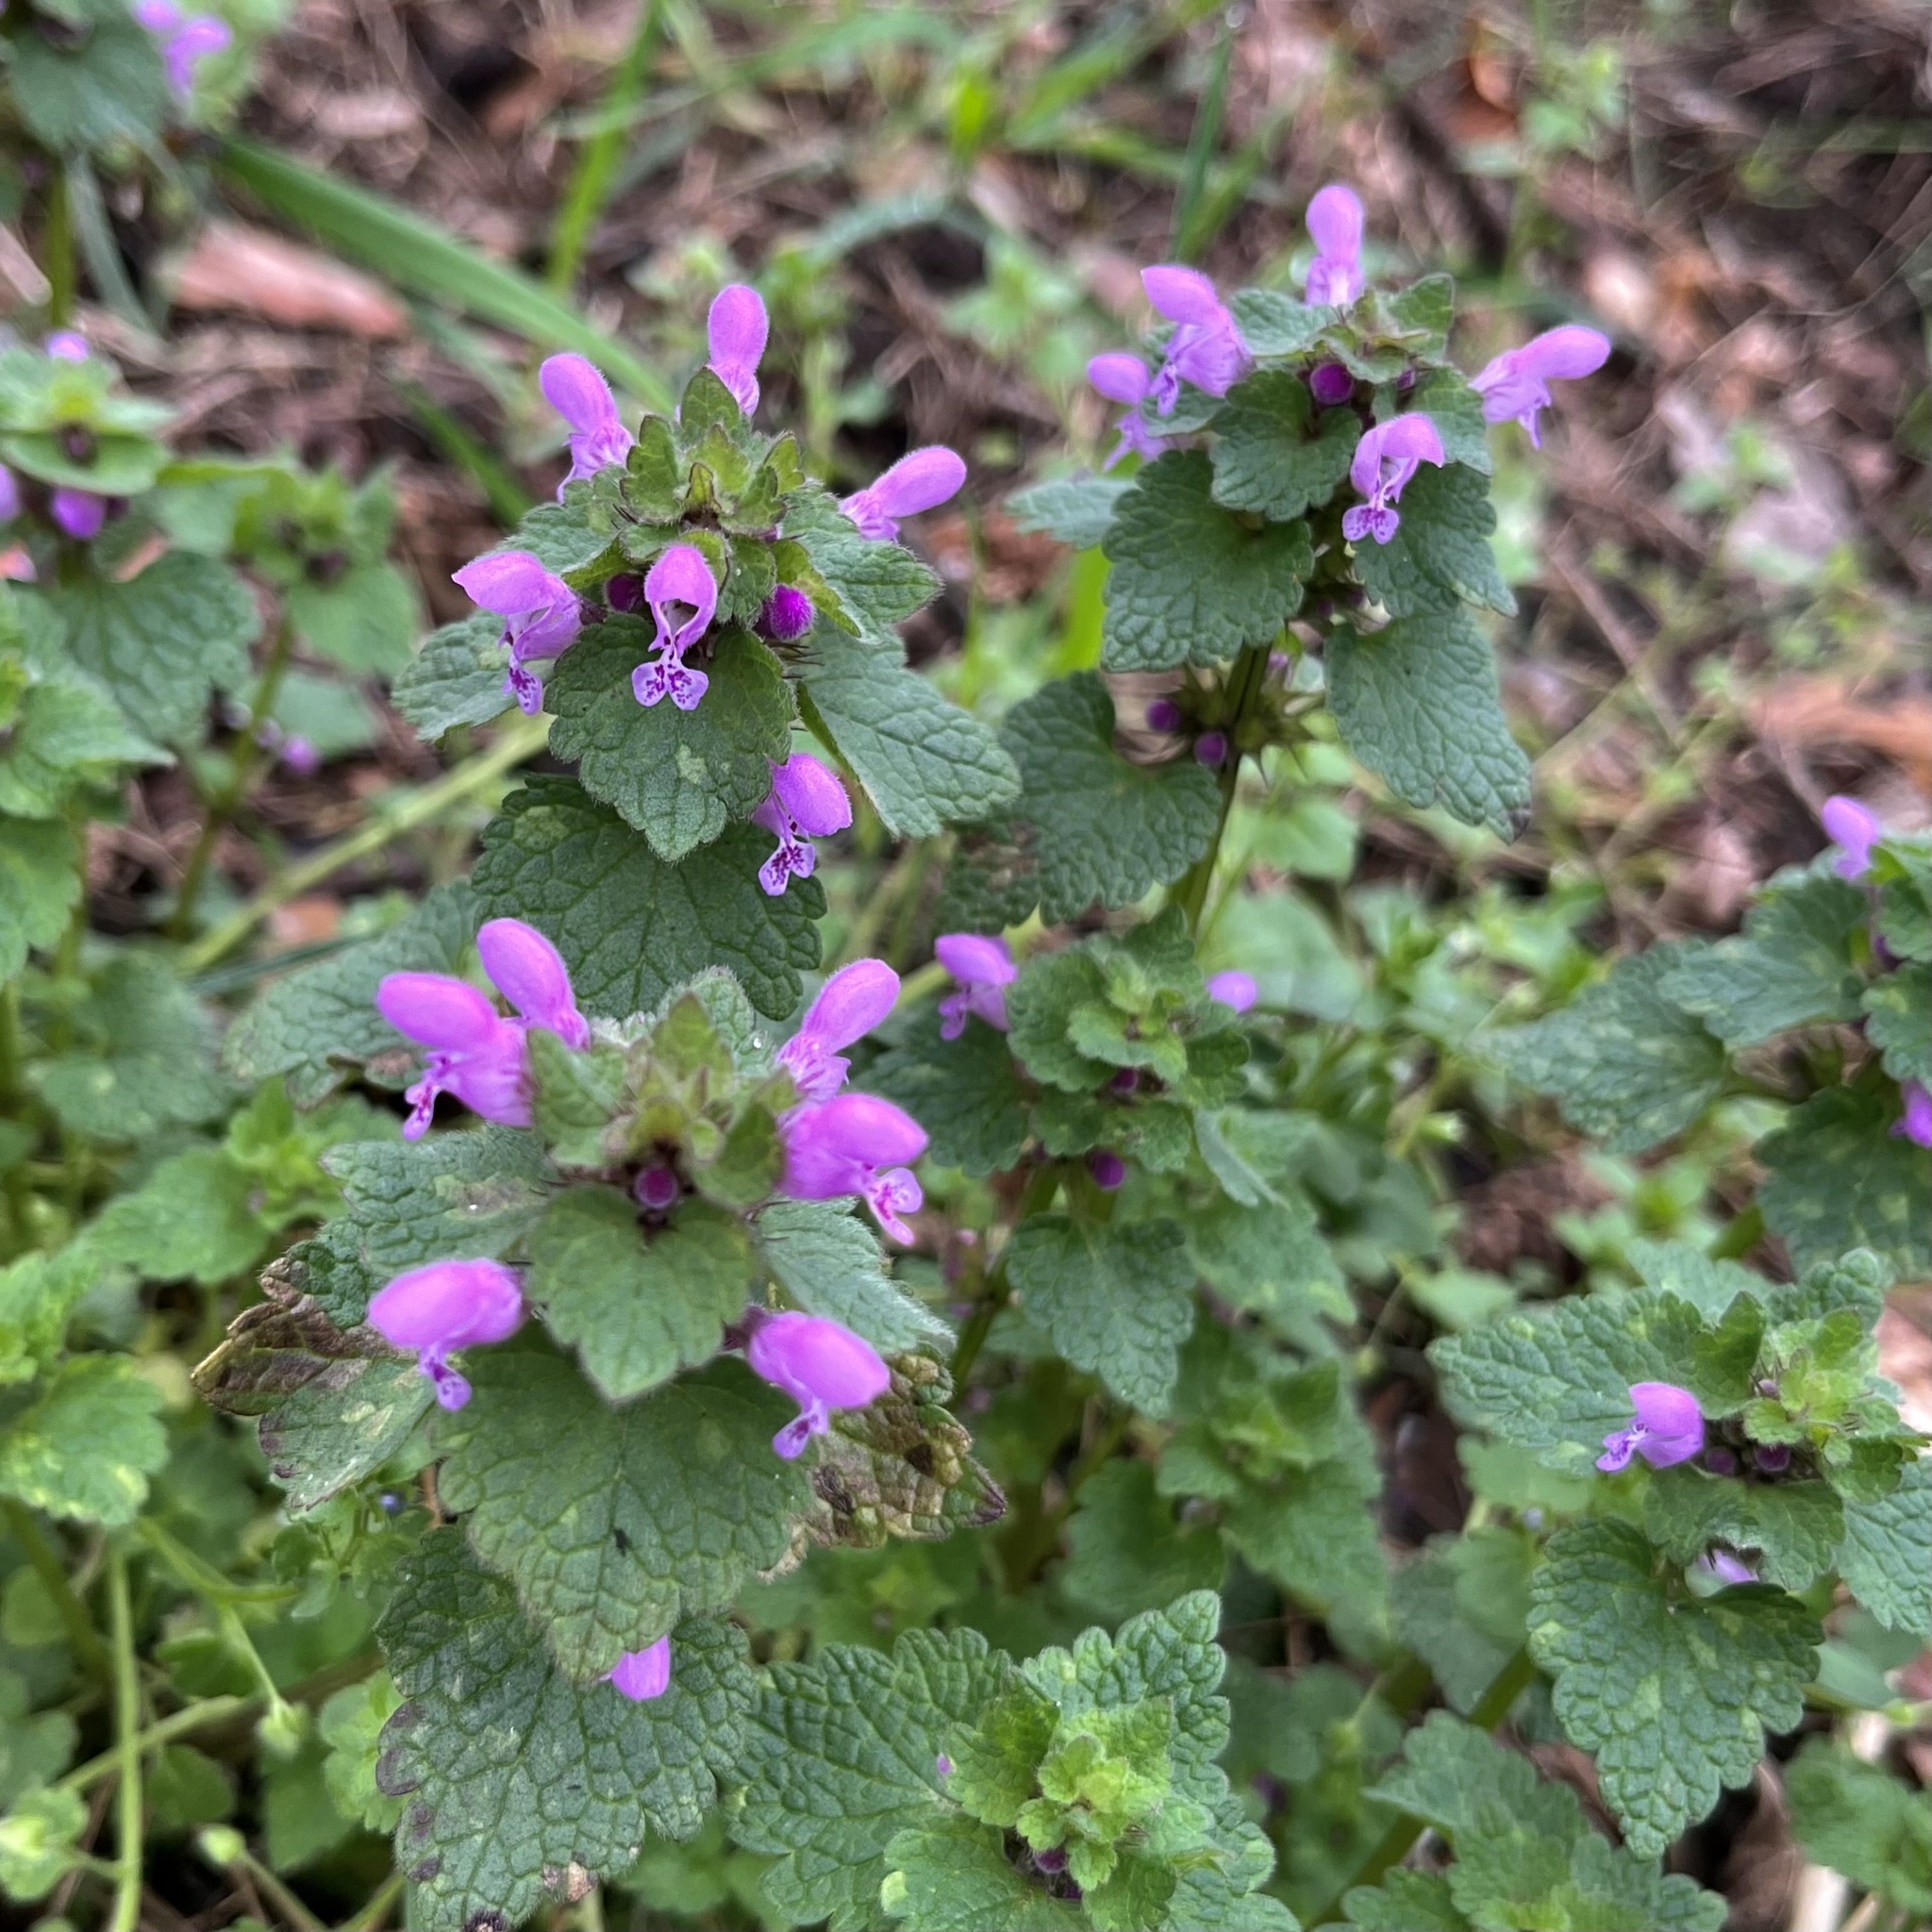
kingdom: Plantae
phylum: Tracheophyta
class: Magnoliopsida
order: Lamiales
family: Lamiaceae
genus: Lamium
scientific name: Lamium purpureum
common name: Red dead-nettle
